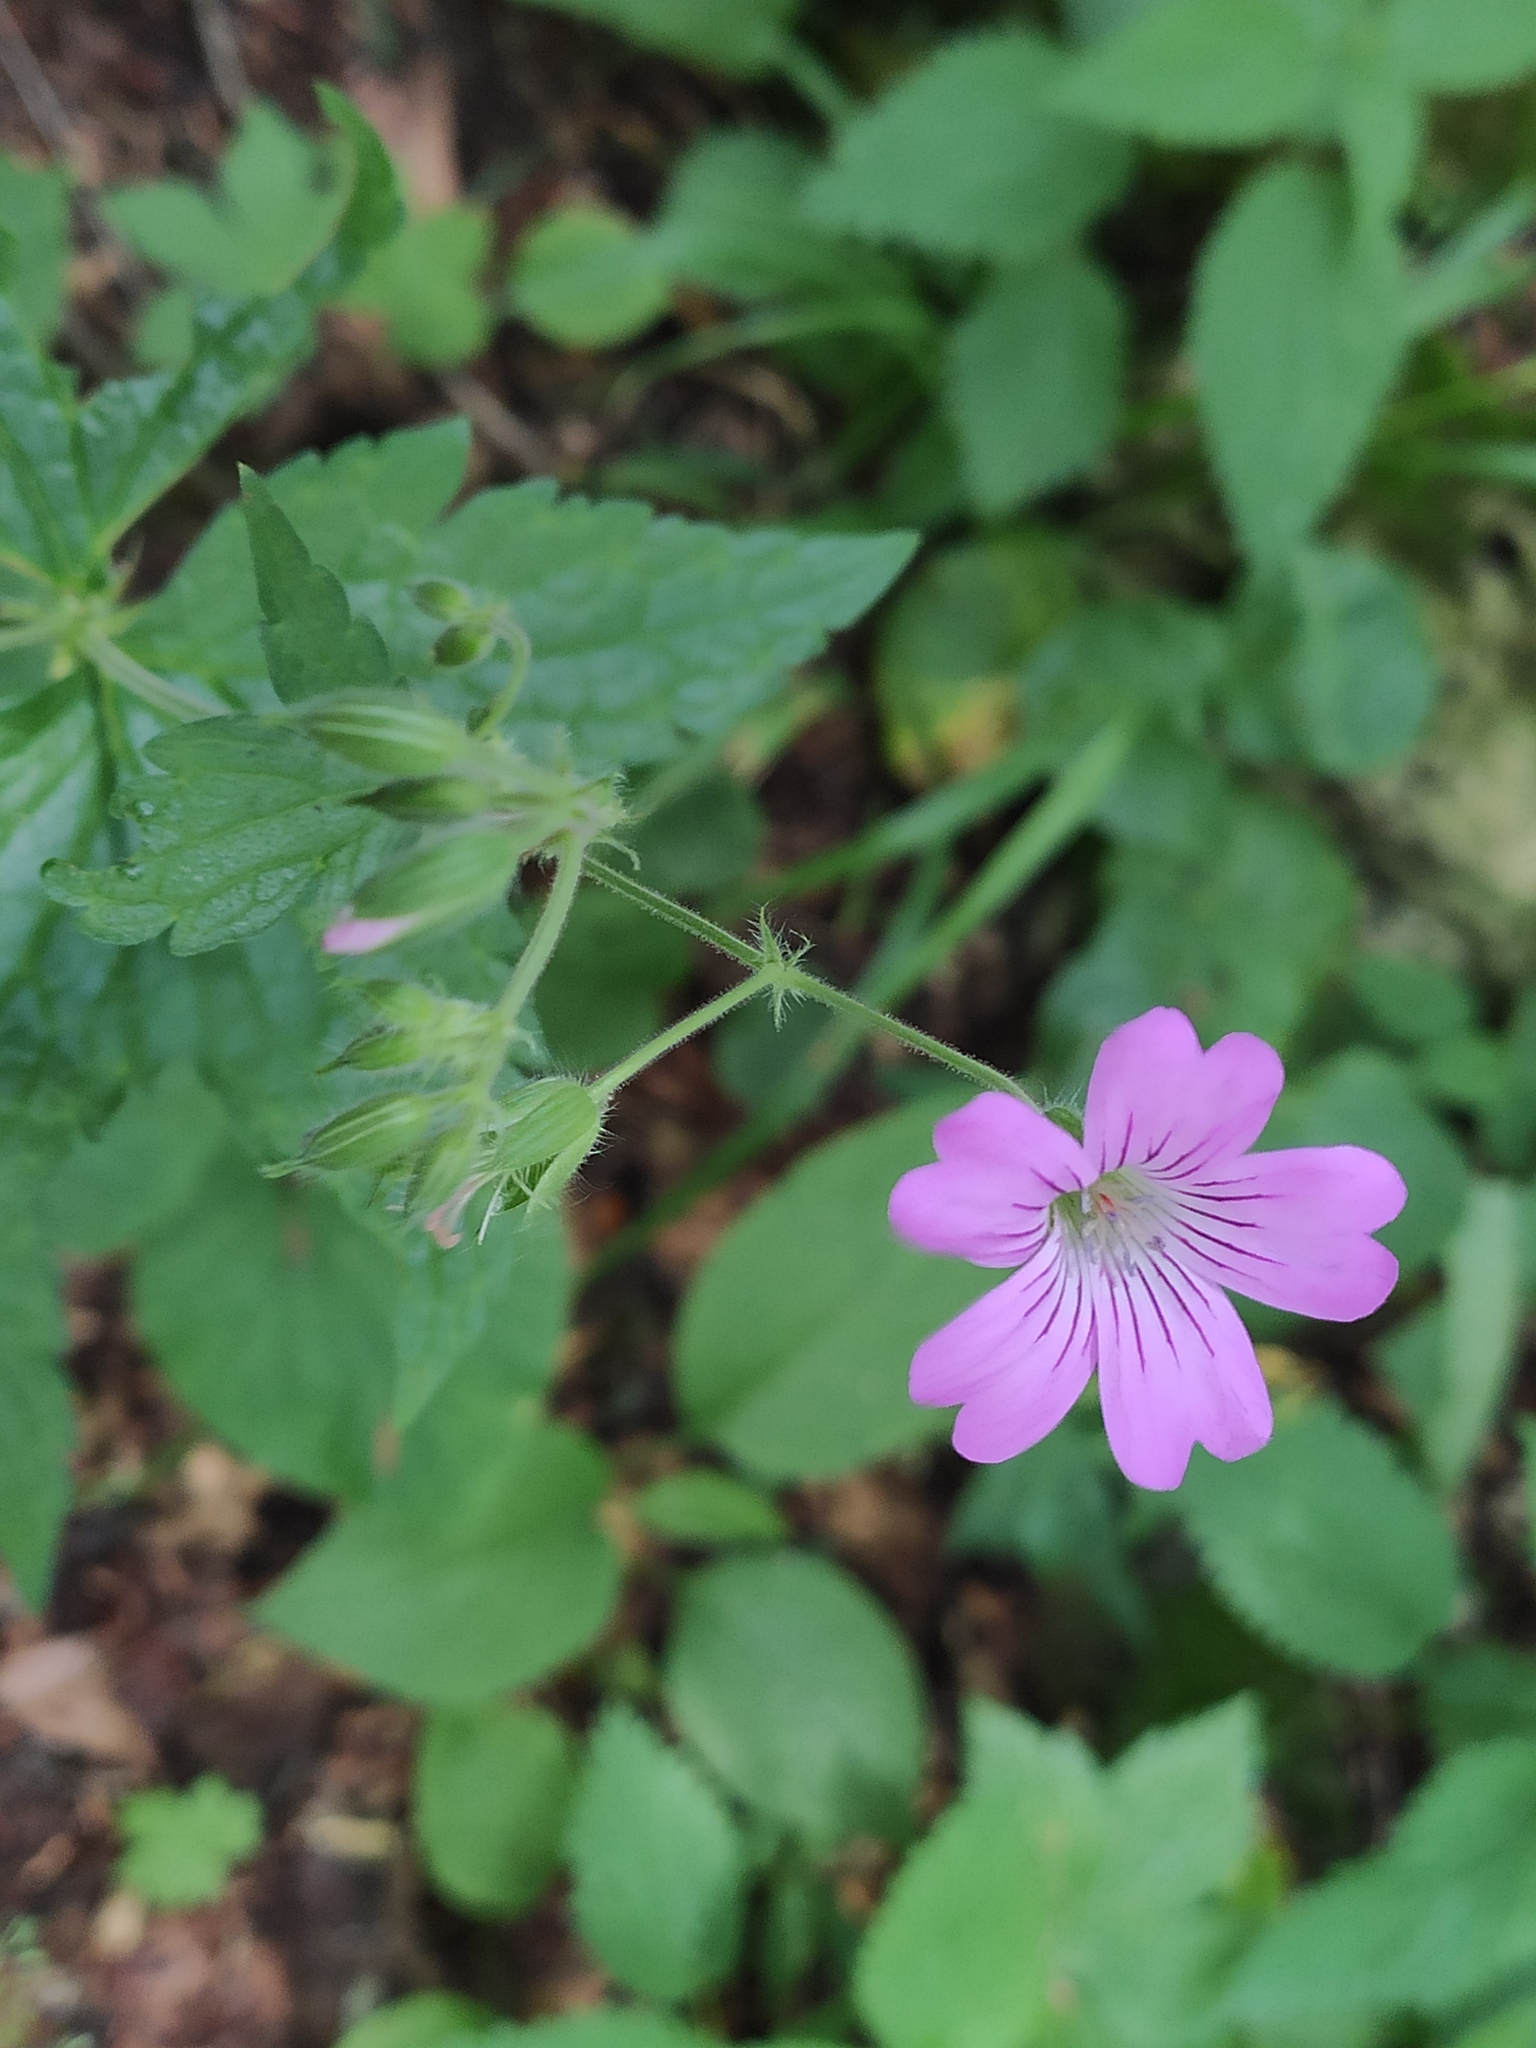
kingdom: Plantae
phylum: Tracheophyta
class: Magnoliopsida
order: Geraniales
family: Geraniaceae
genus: Geranium
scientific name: Geranium gracile
